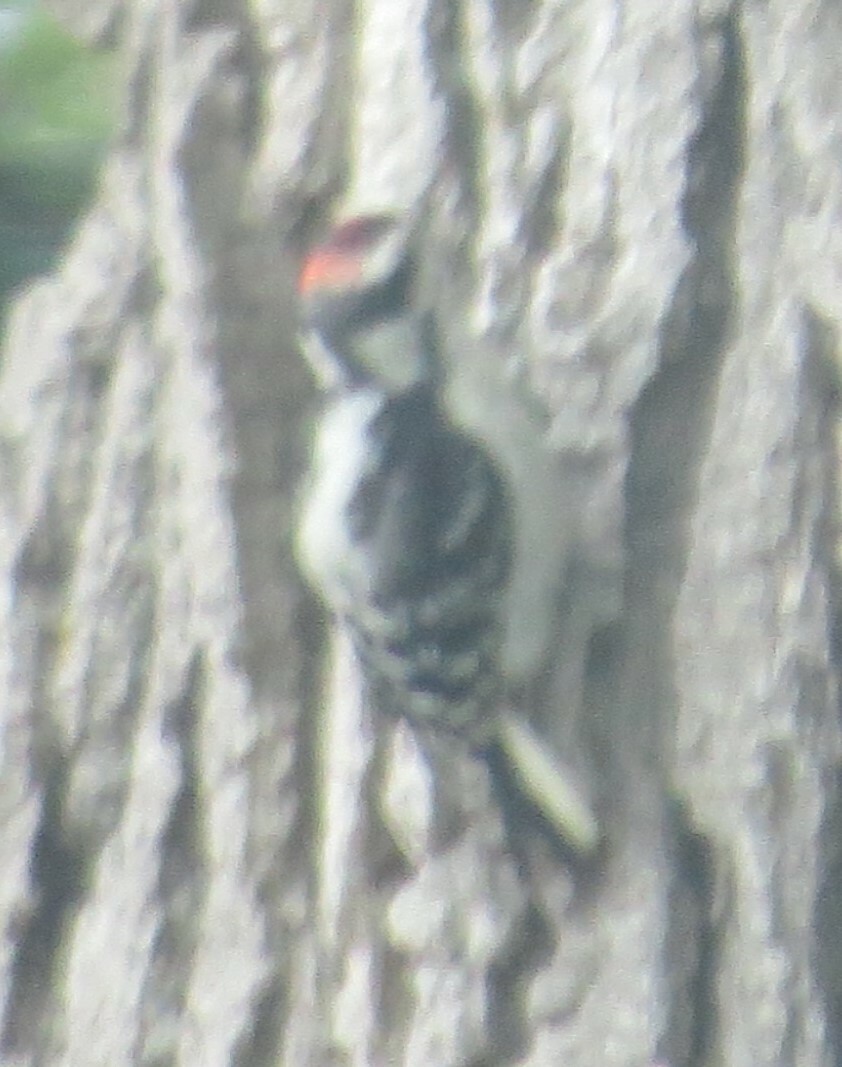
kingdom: Animalia
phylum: Chordata
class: Aves
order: Piciformes
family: Picidae
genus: Dryobates
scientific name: Dryobates pubescens
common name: Downy woodpecker
